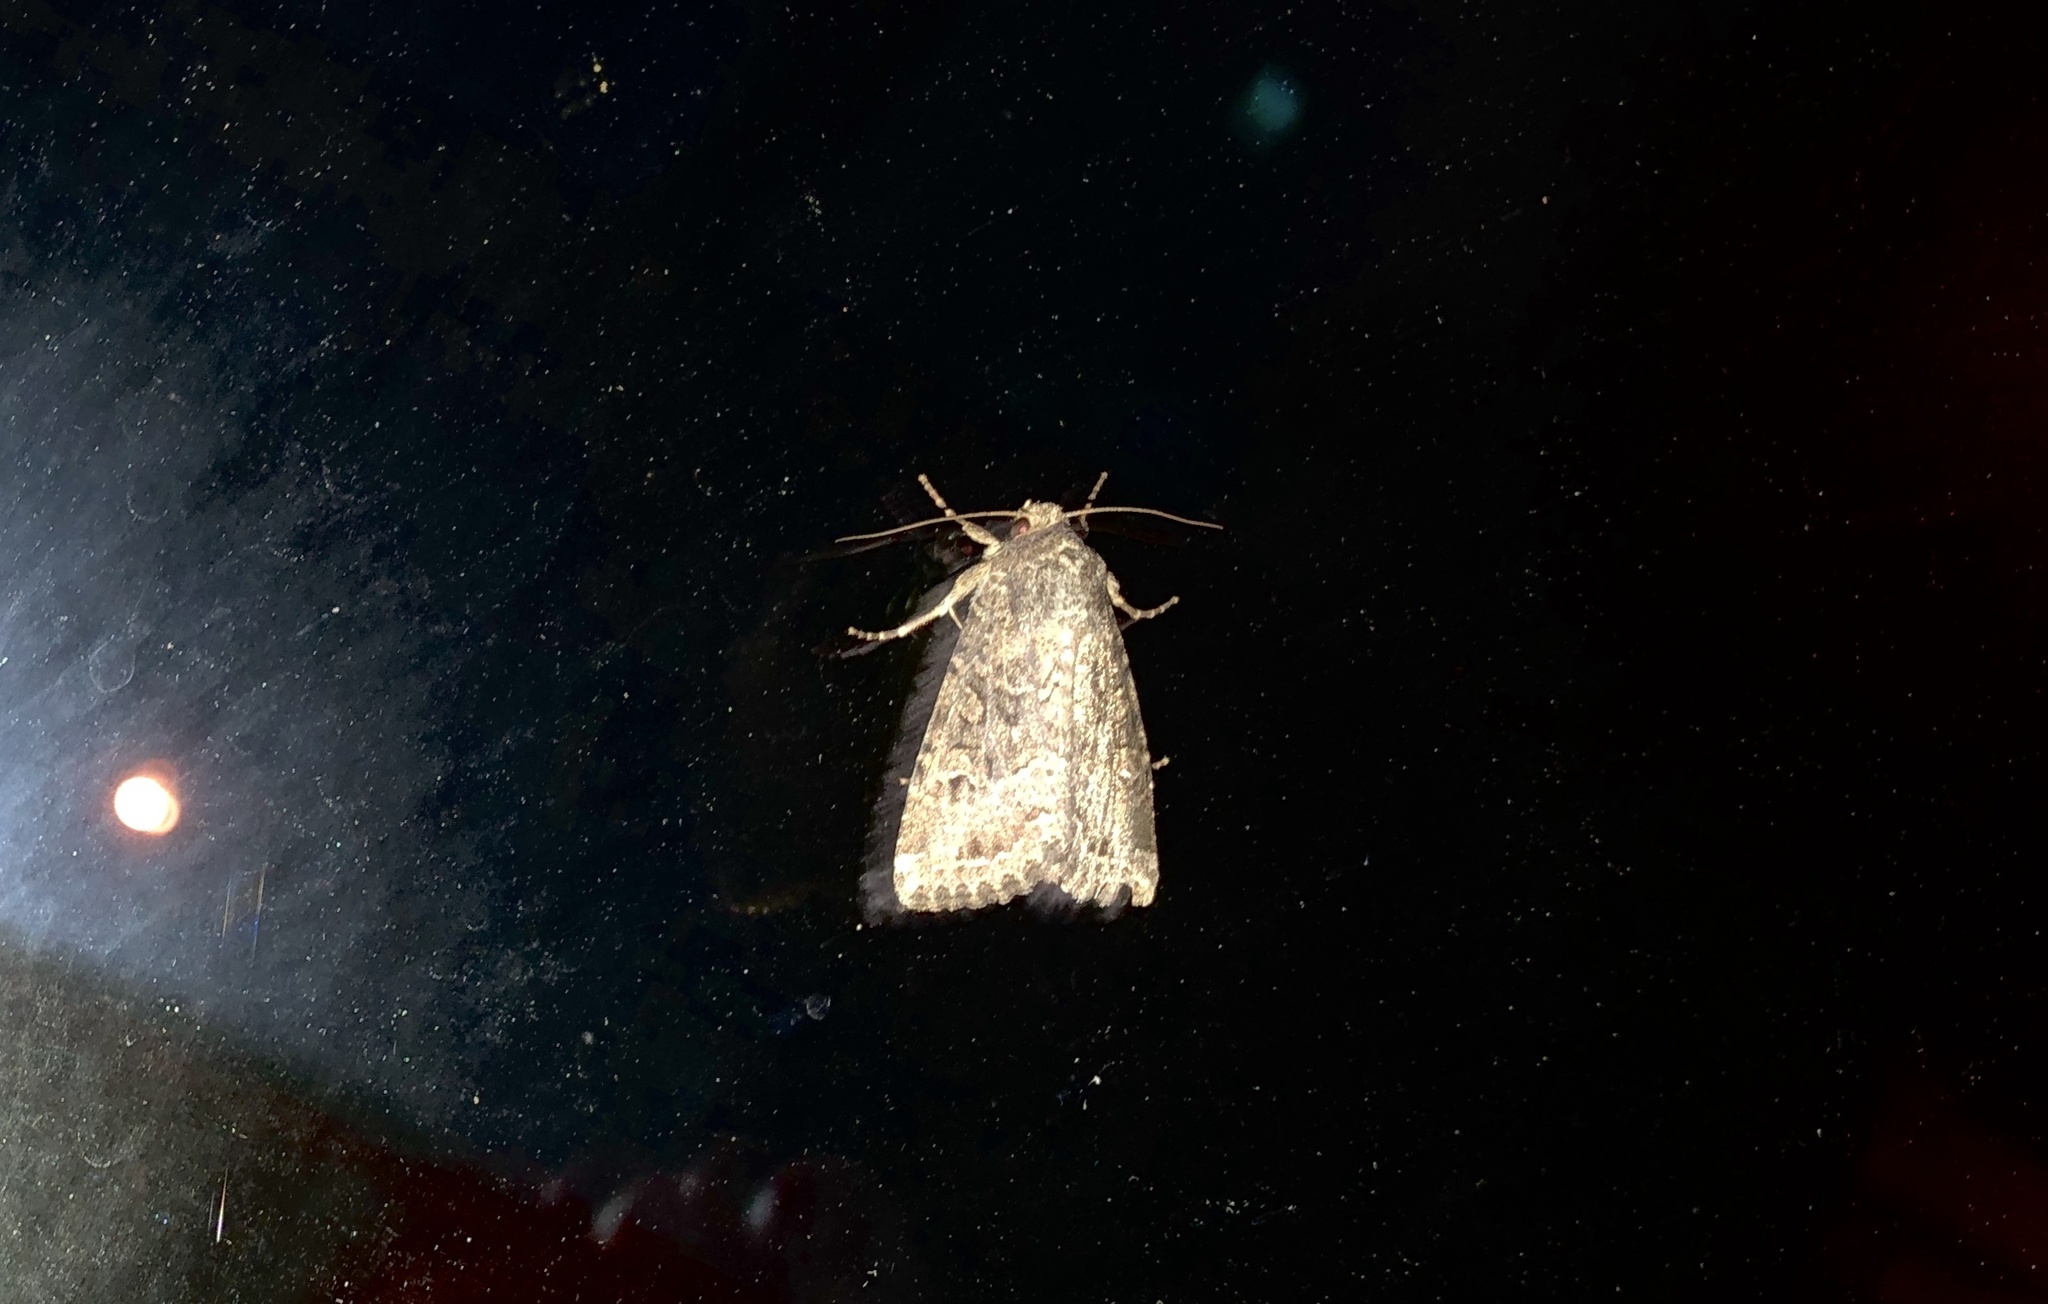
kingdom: Animalia
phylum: Arthropoda
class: Insecta
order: Lepidoptera
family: Noctuidae
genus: Apamea
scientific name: Apamea devastator
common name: Glassy cutworm
